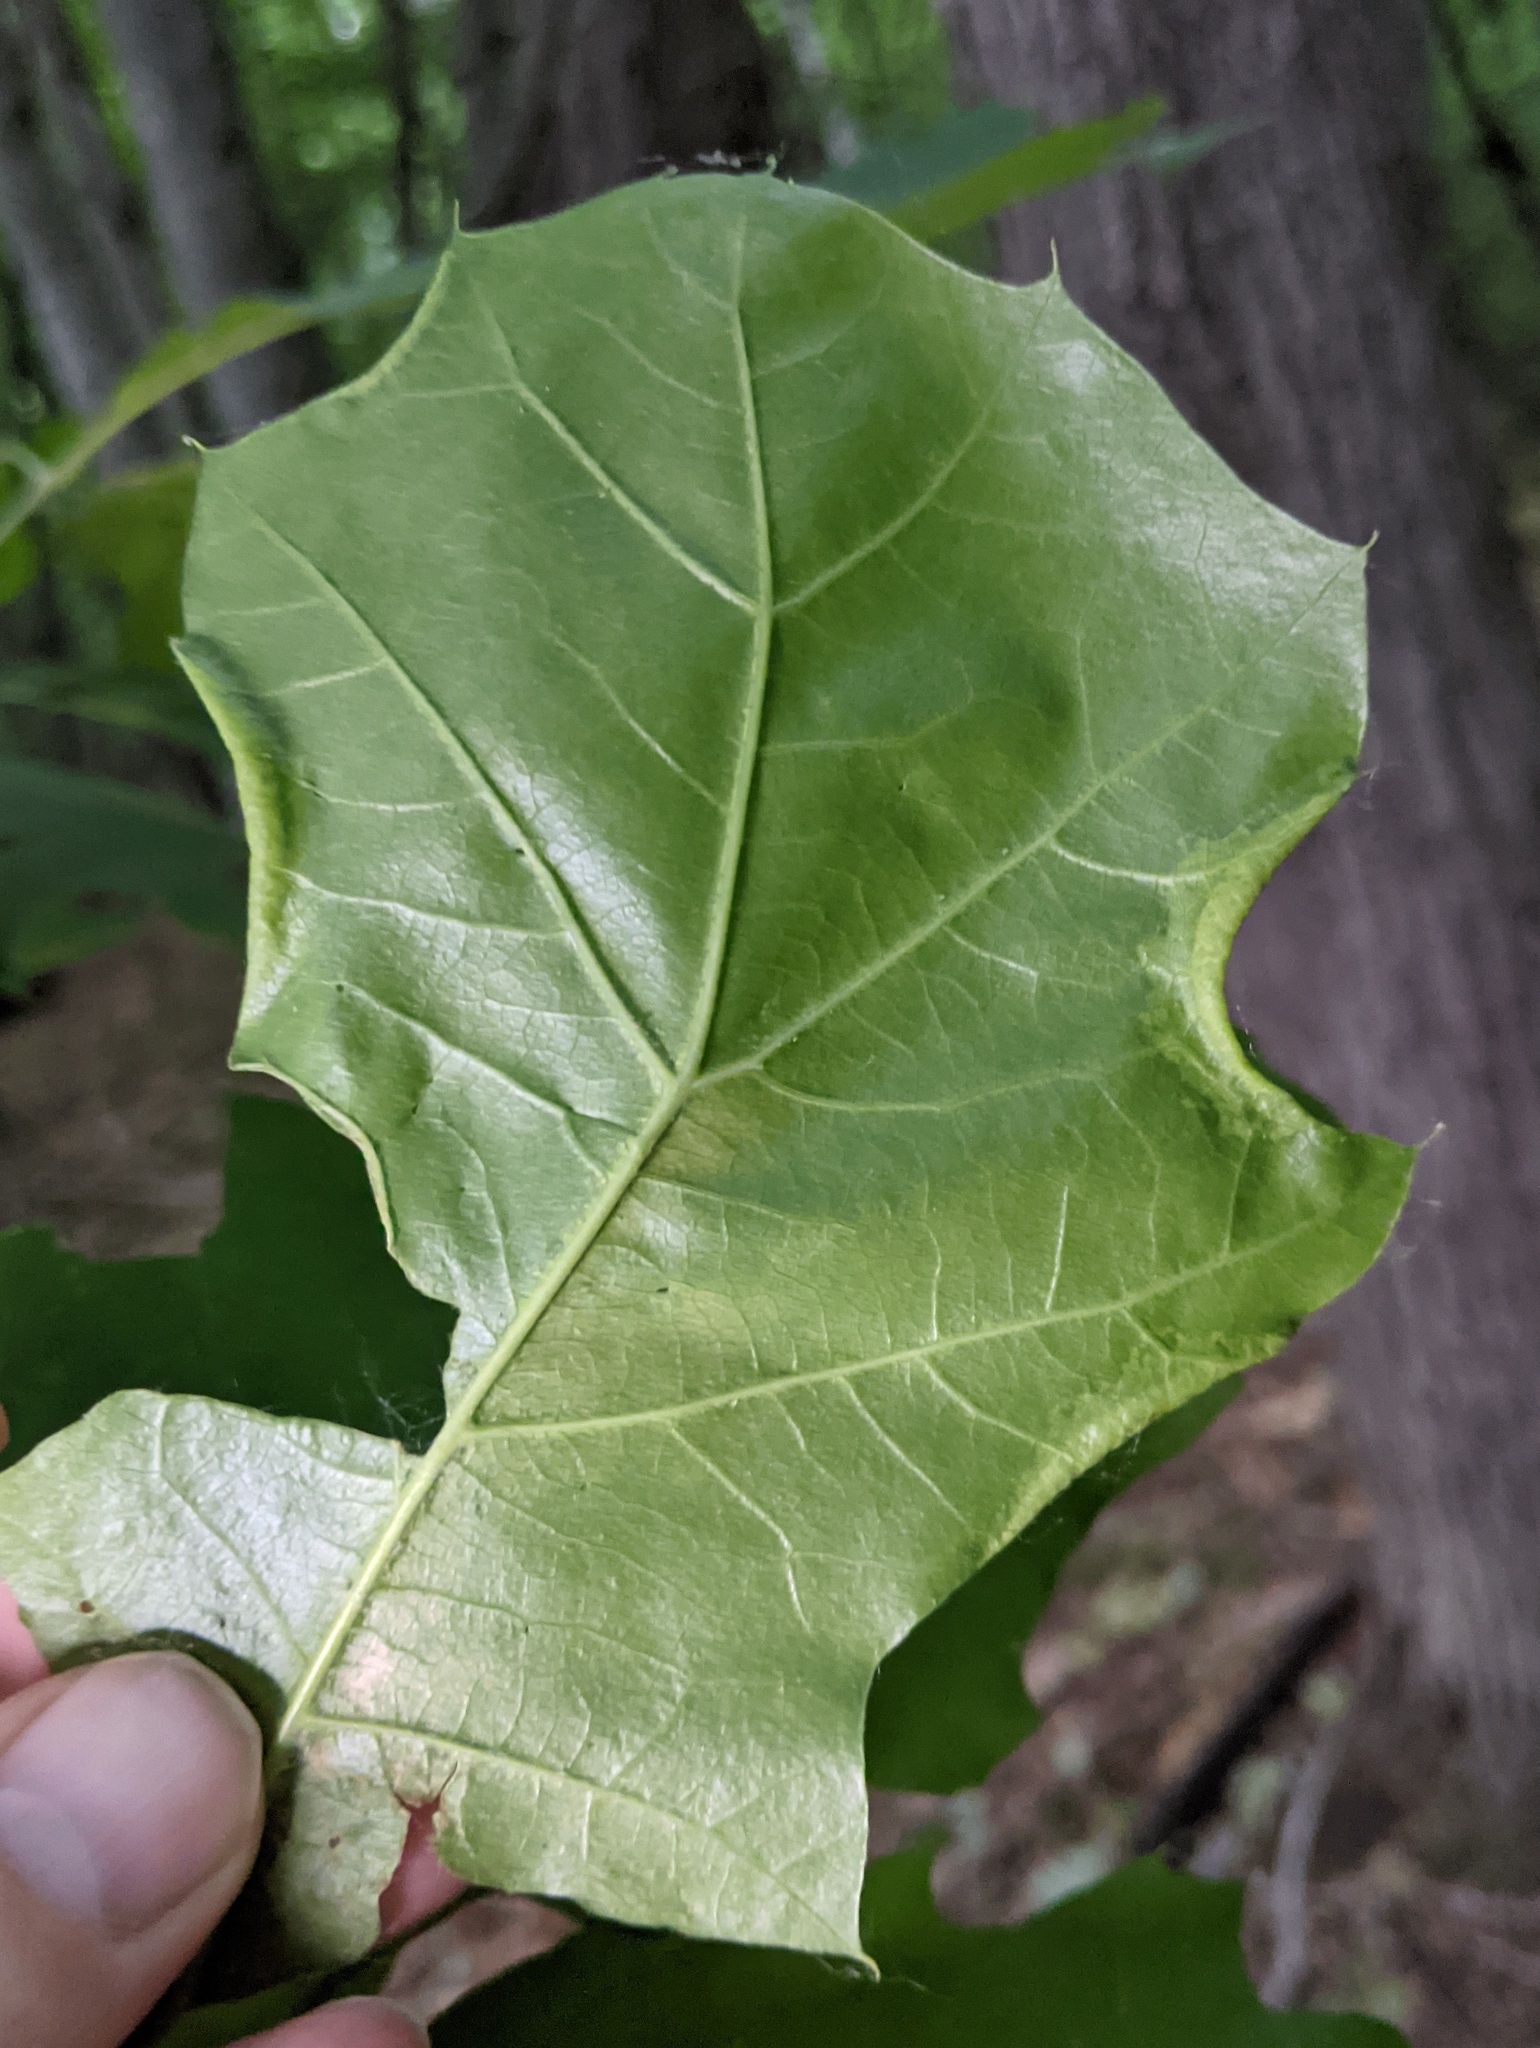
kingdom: Animalia
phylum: Arthropoda
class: Insecta
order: Diptera
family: Cecidomyiidae
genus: Macrodiplosis
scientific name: Macrodiplosis erubescens
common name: Marginal leaf fold gall midge
